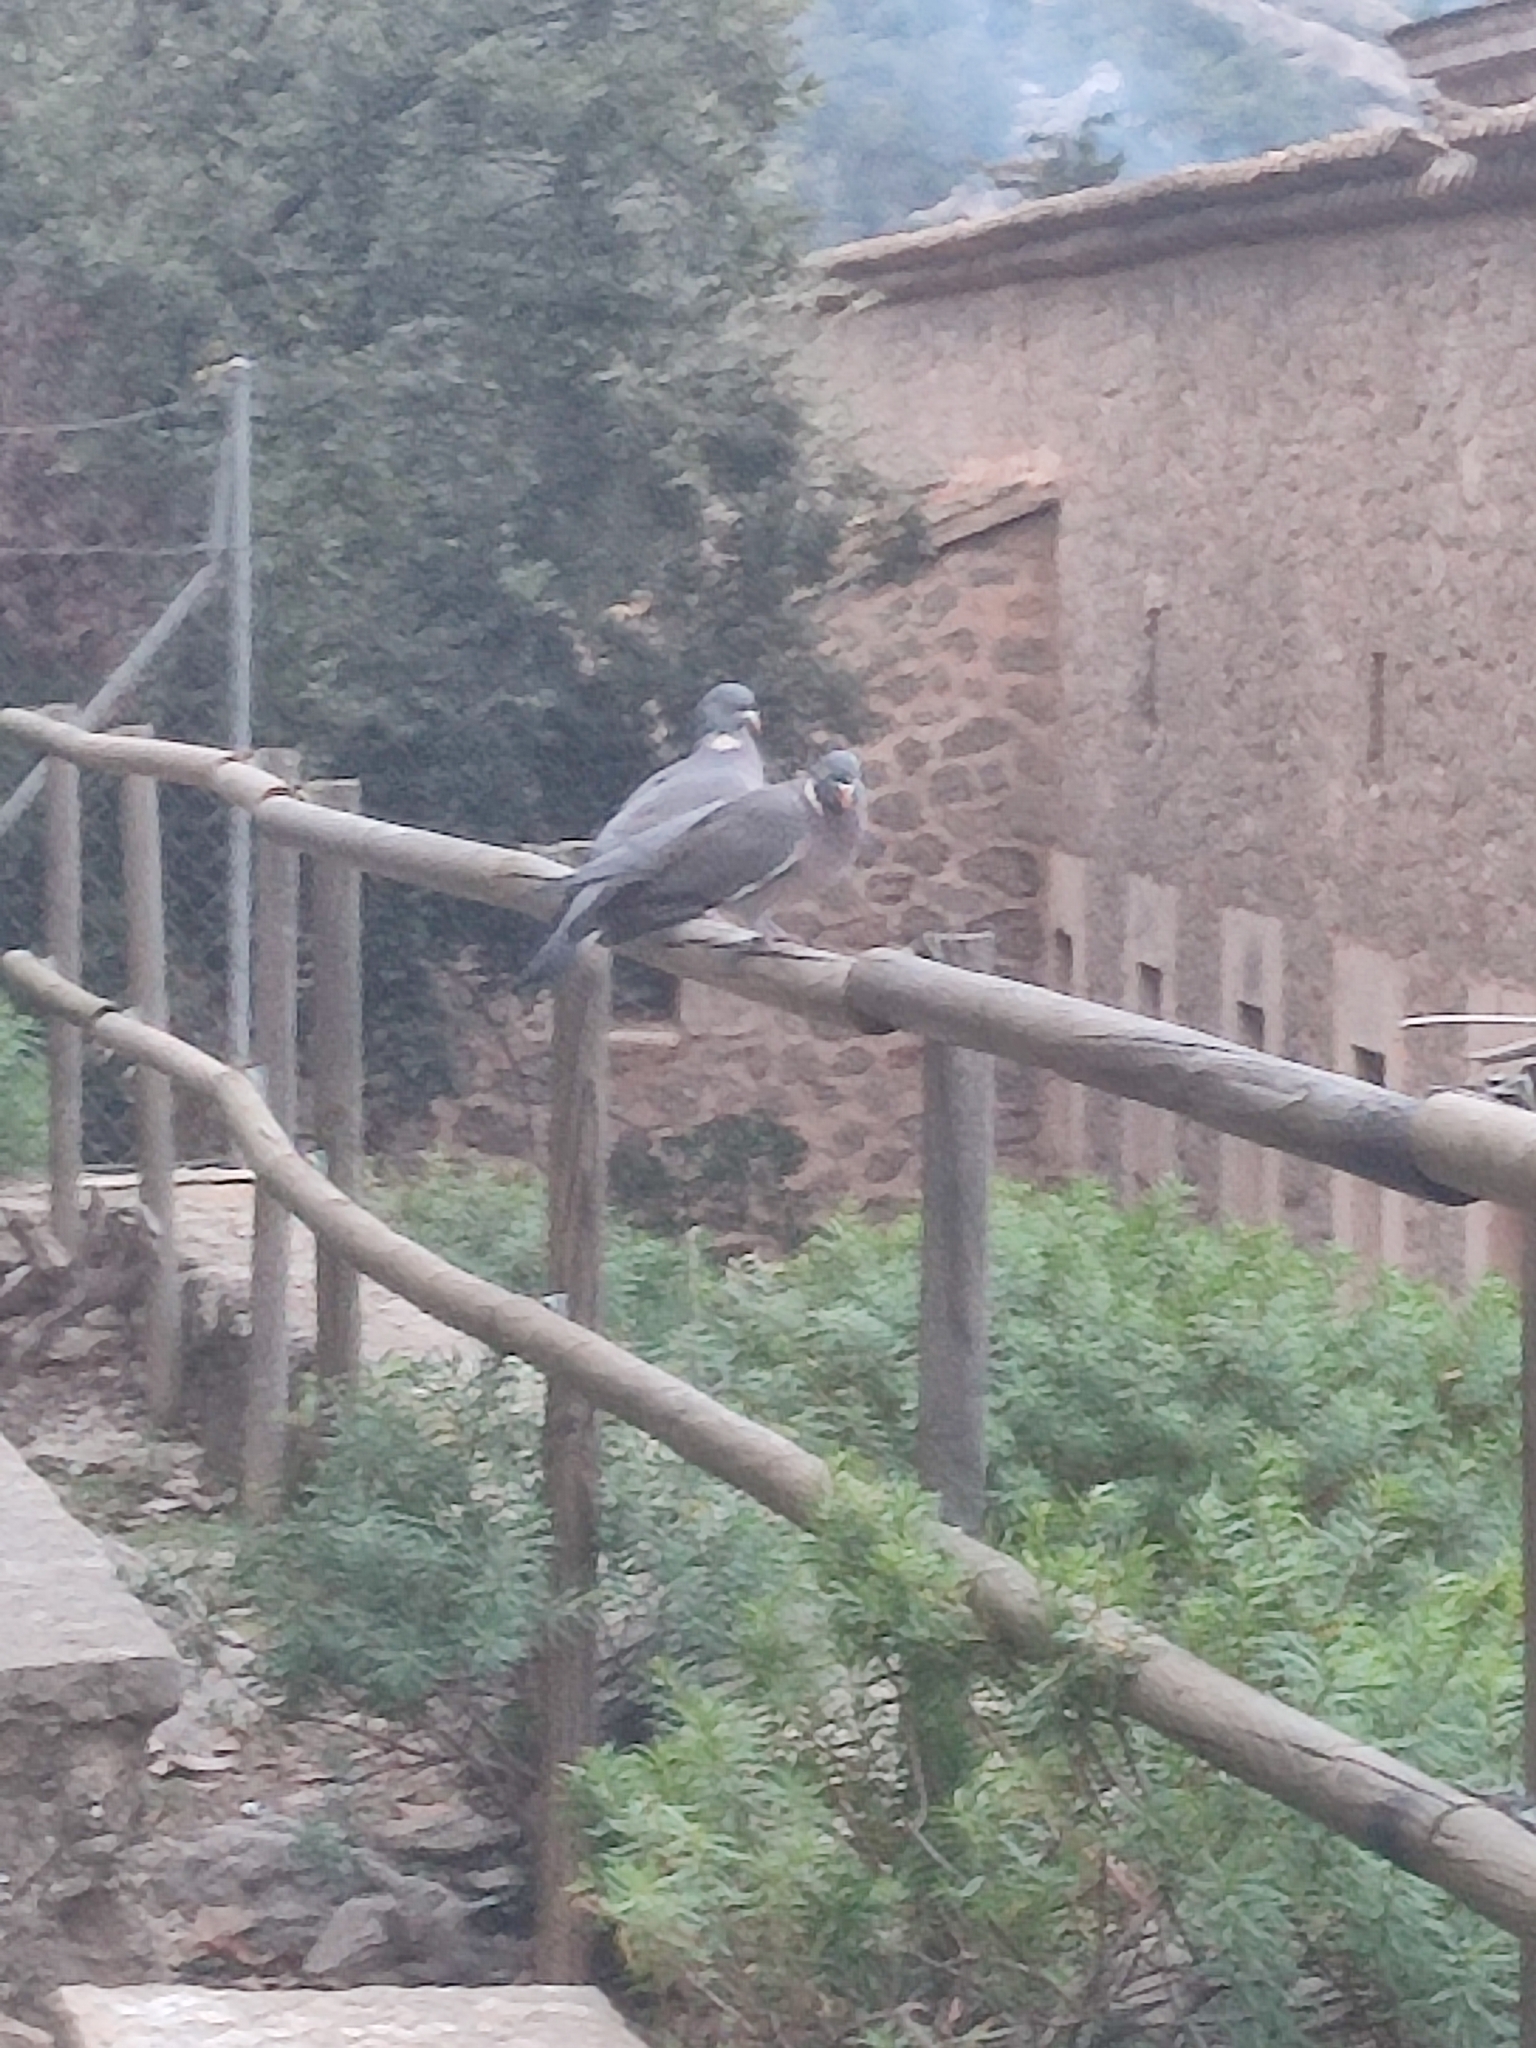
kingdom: Animalia
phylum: Chordata
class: Aves
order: Columbiformes
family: Columbidae
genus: Columba
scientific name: Columba palumbus
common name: Common wood pigeon
